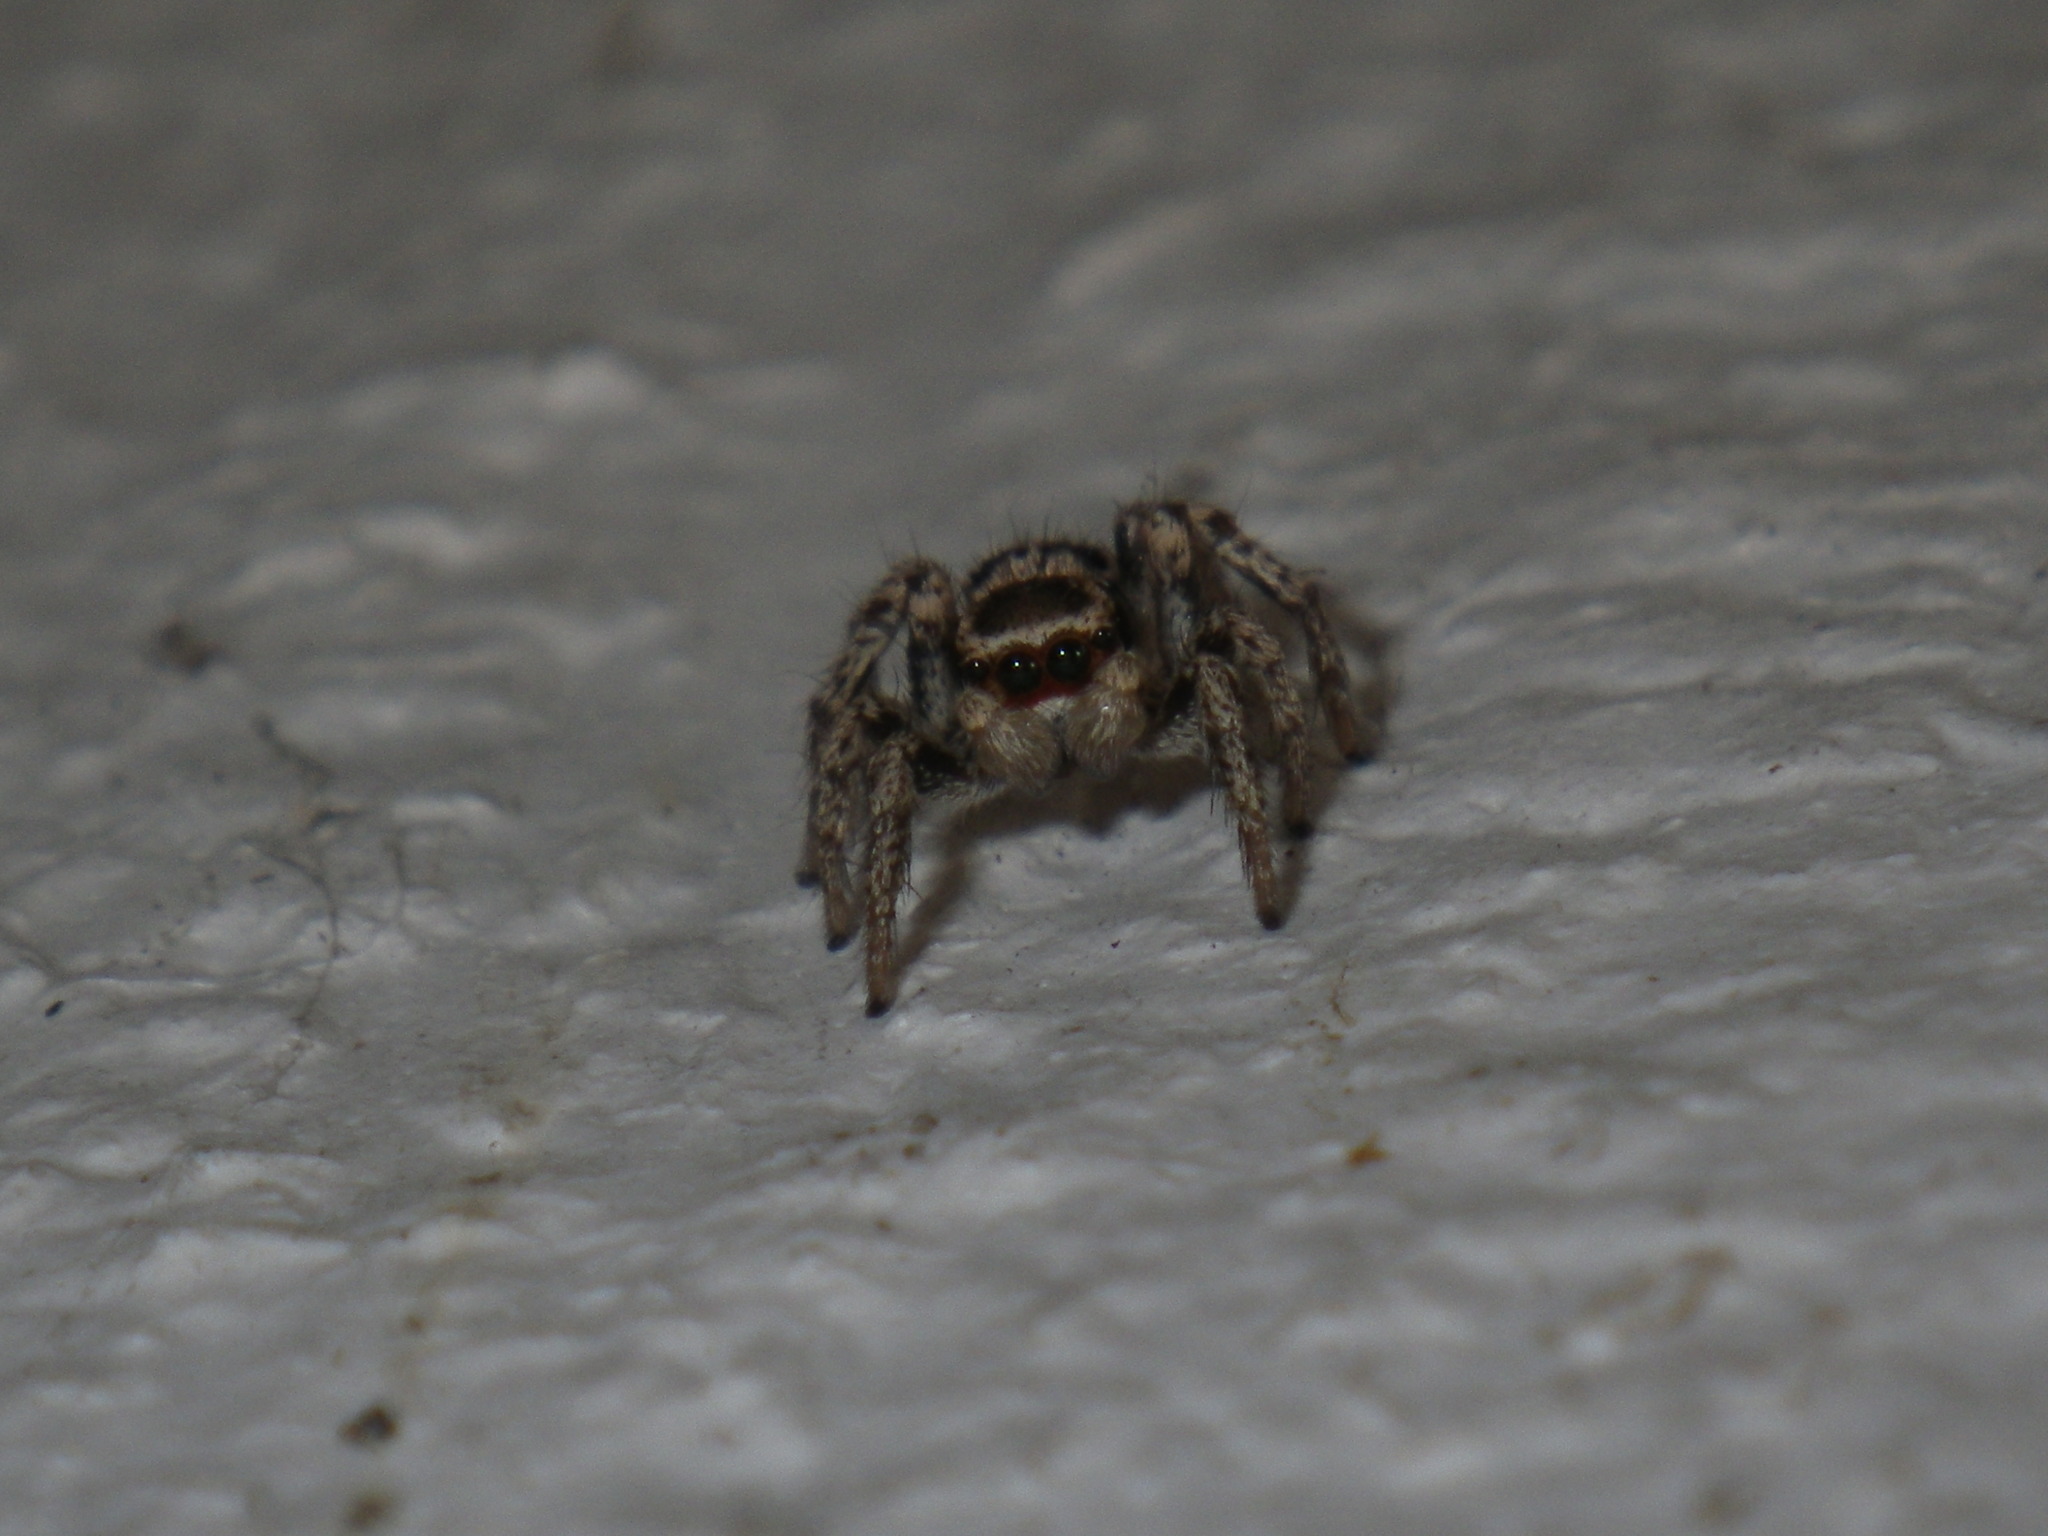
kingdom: Animalia
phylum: Arthropoda
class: Arachnida
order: Araneae
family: Salticidae
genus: Habronattus
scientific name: Habronattus formosus
